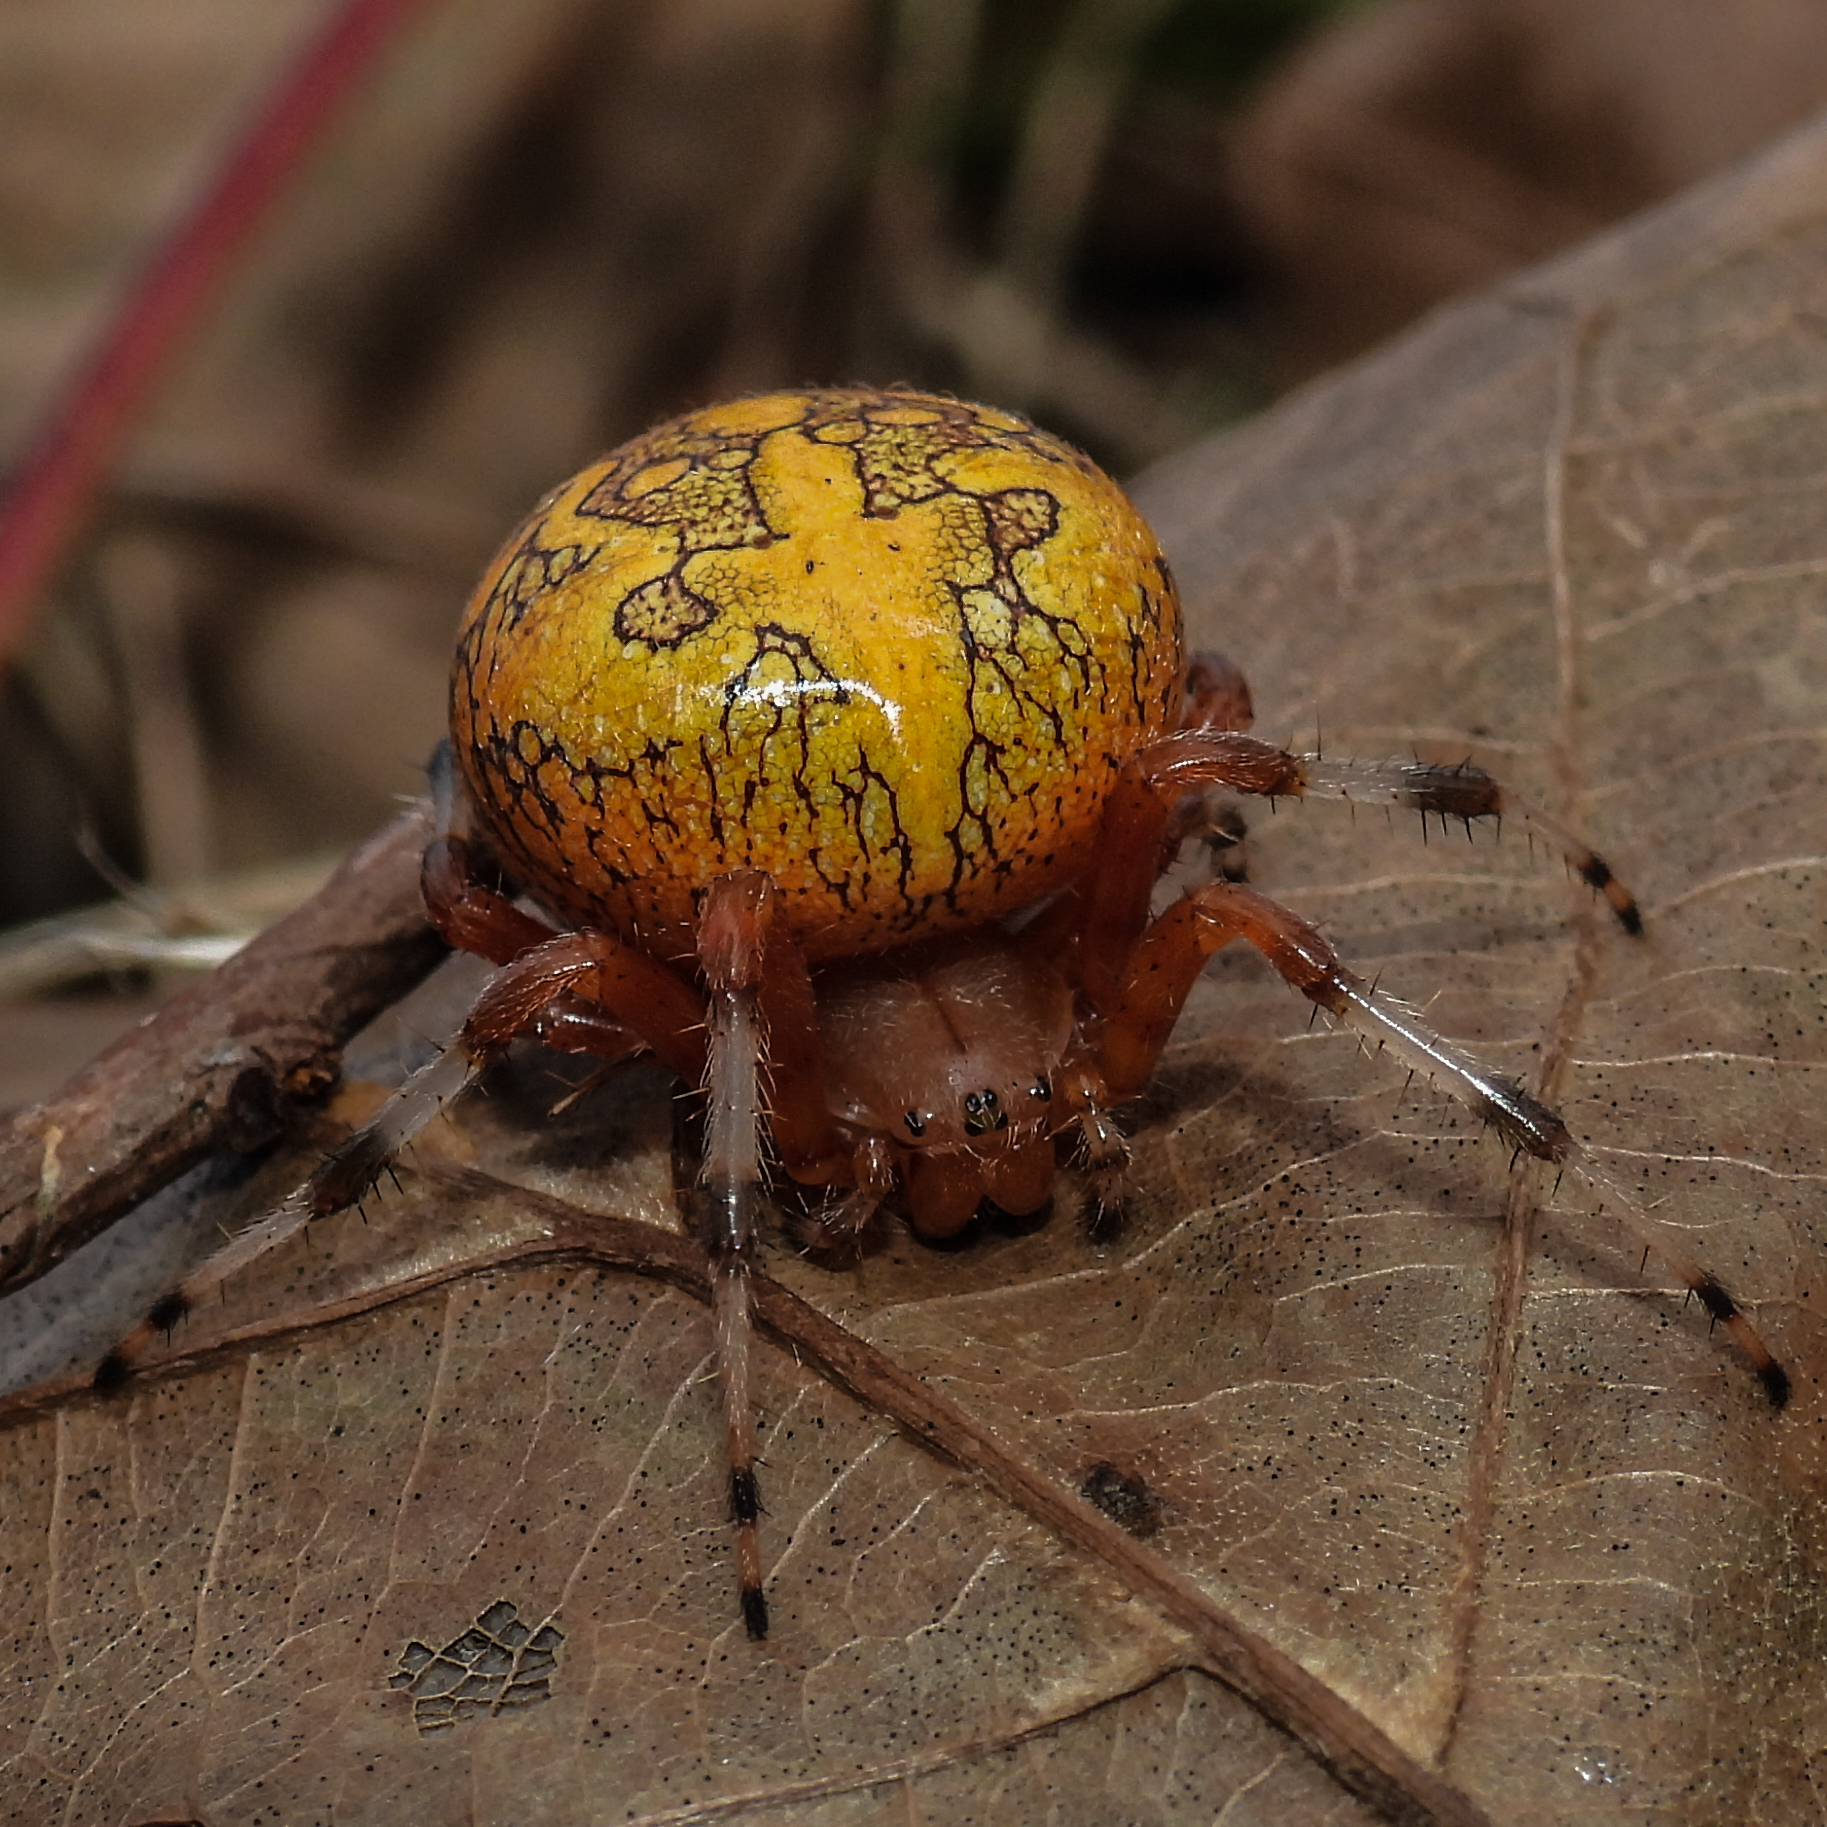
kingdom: Animalia
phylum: Arthropoda
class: Arachnida
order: Araneae
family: Araneidae
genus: Araneus
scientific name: Araneus marmoreus
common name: Marbled orbweaver
